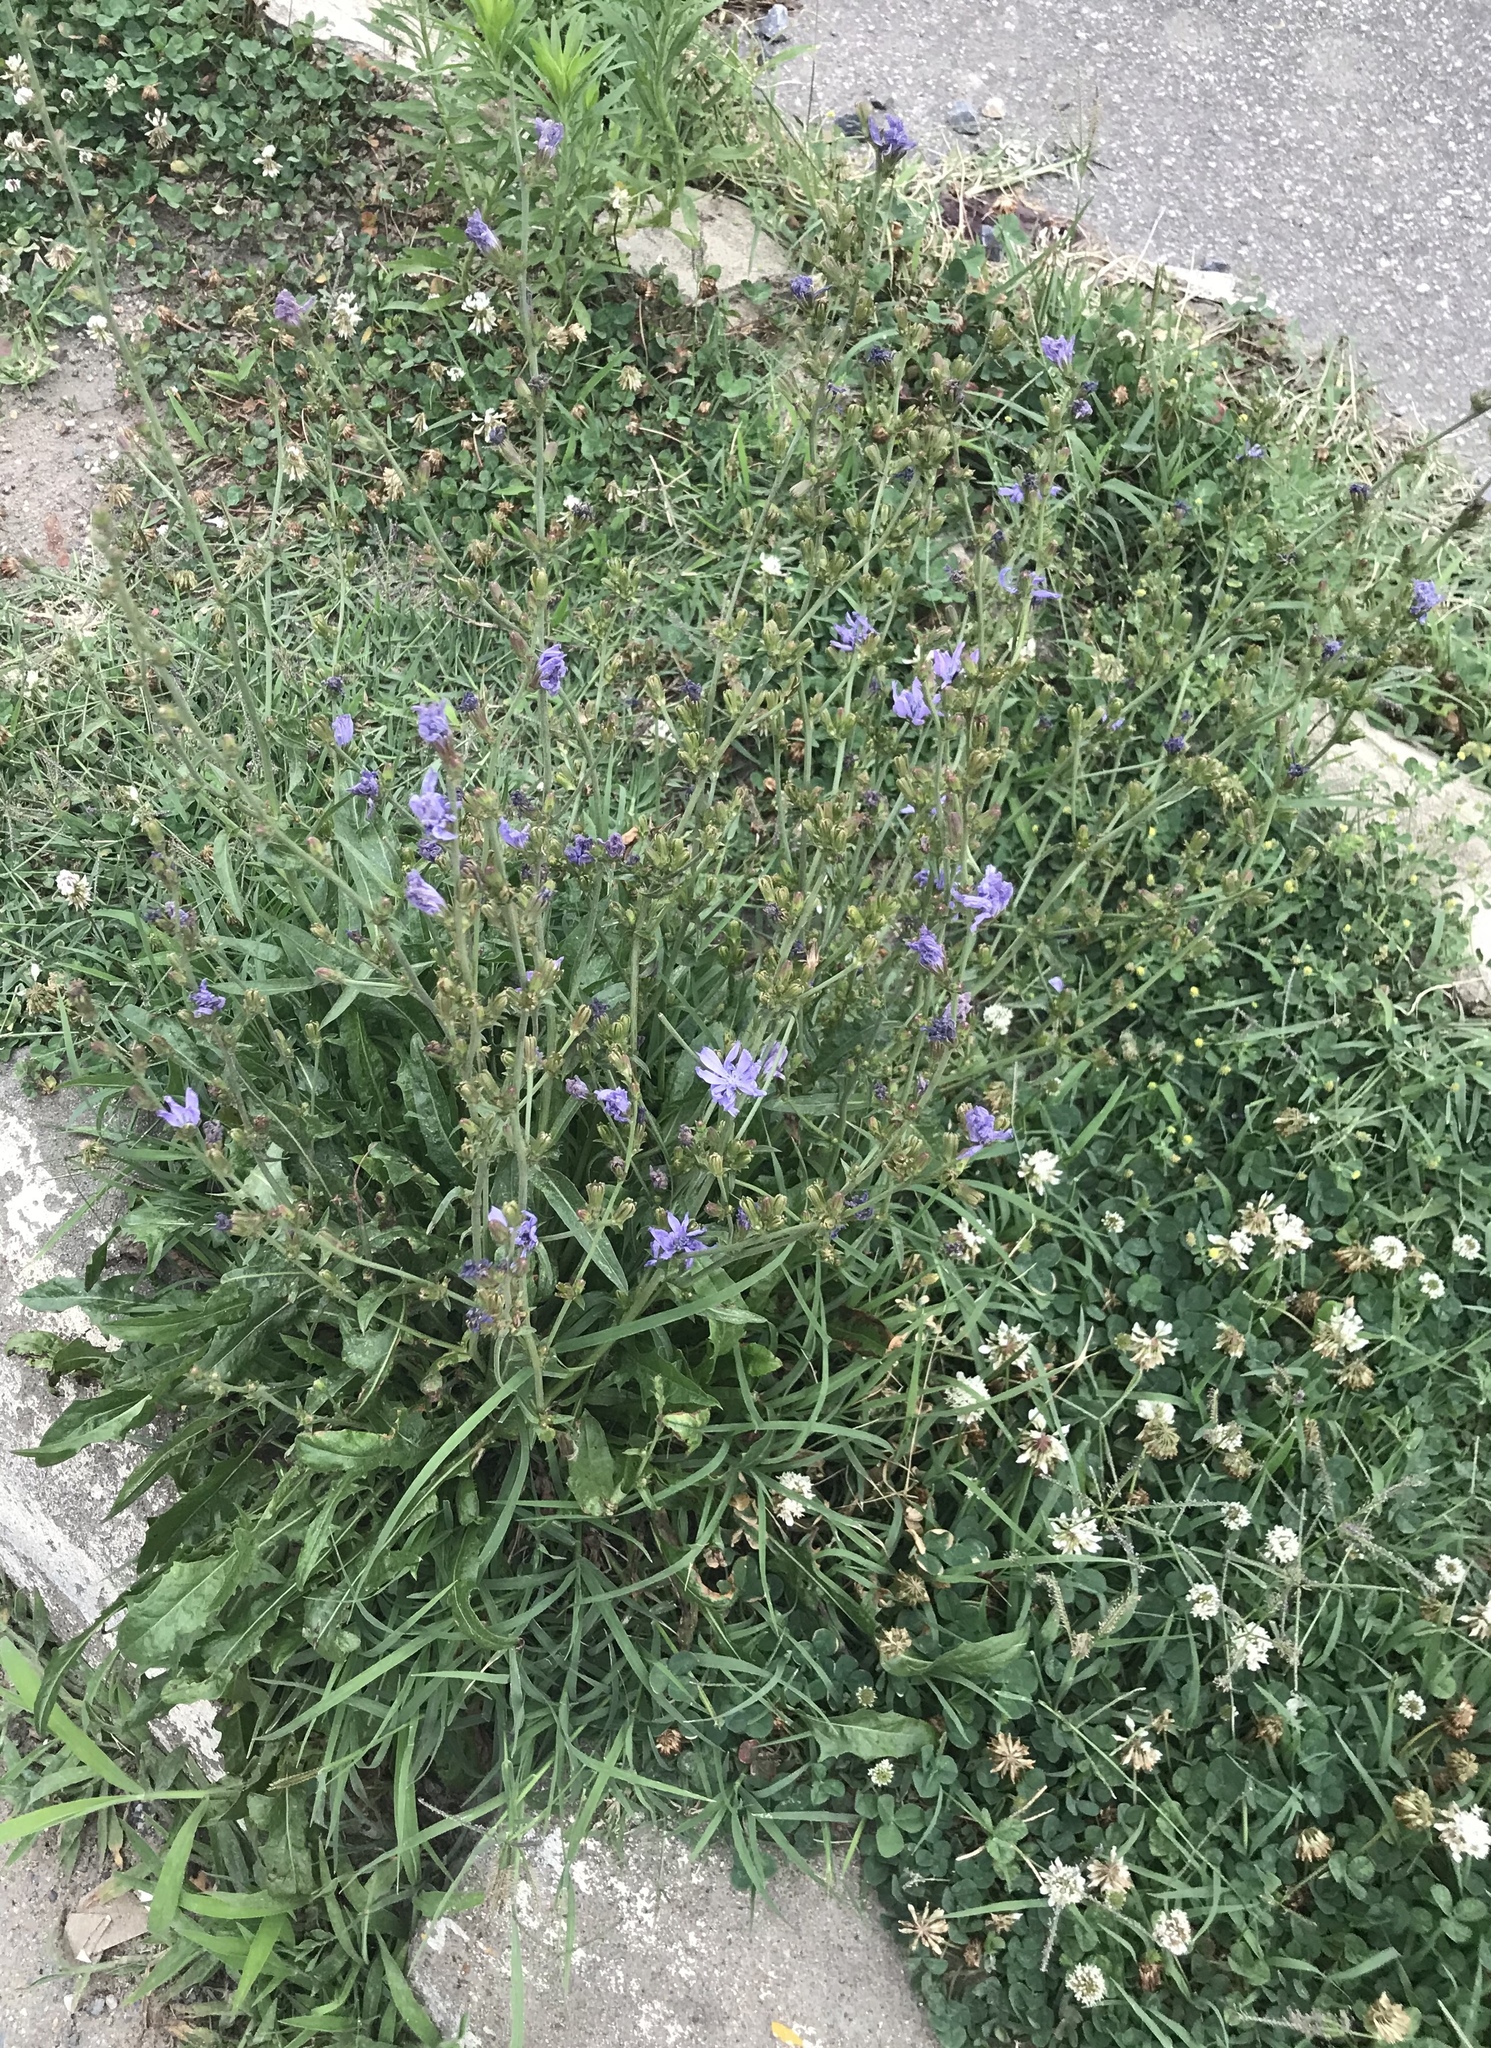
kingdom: Plantae
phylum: Tracheophyta
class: Magnoliopsida
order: Asterales
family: Asteraceae
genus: Cichorium
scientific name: Cichorium intybus
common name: Chicory
